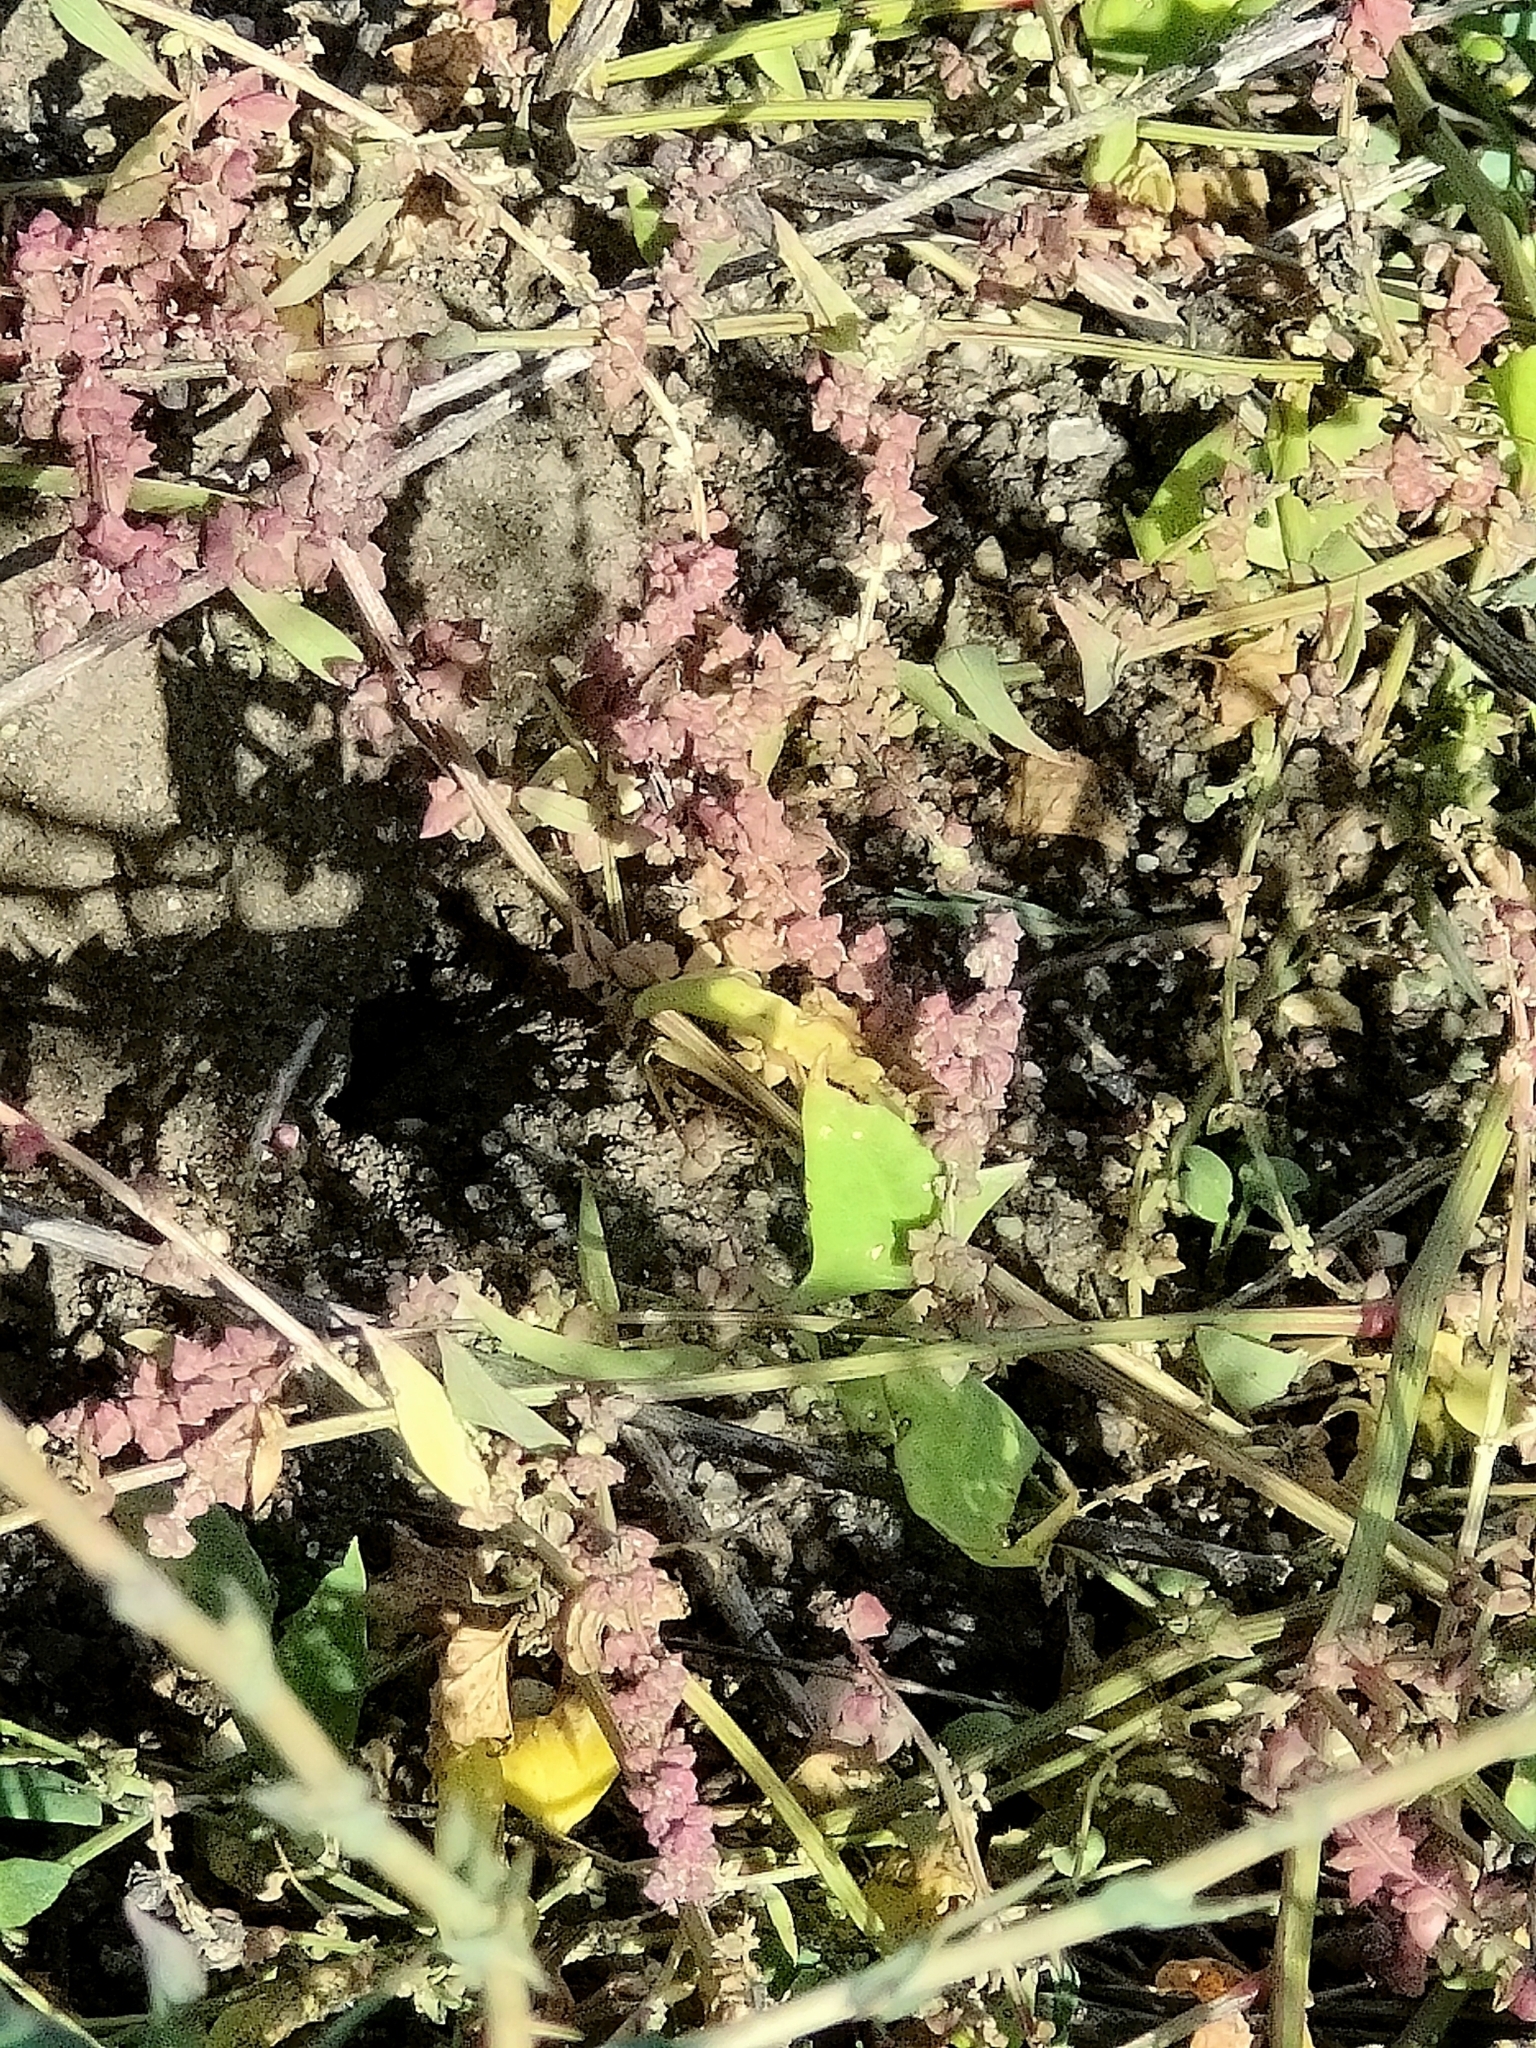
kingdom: Plantae
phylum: Tracheophyta
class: Polypodiopsida
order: Salviniales
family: Salviniaceae
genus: Azolla
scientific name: Azolla rubra
